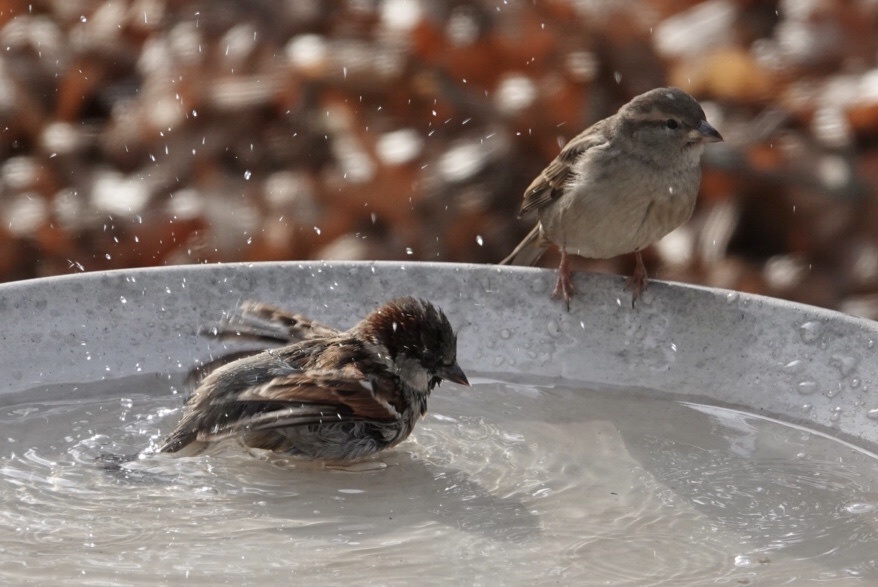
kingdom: Animalia
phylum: Chordata
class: Aves
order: Passeriformes
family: Passeridae
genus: Passer
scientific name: Passer domesticus
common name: House sparrow
